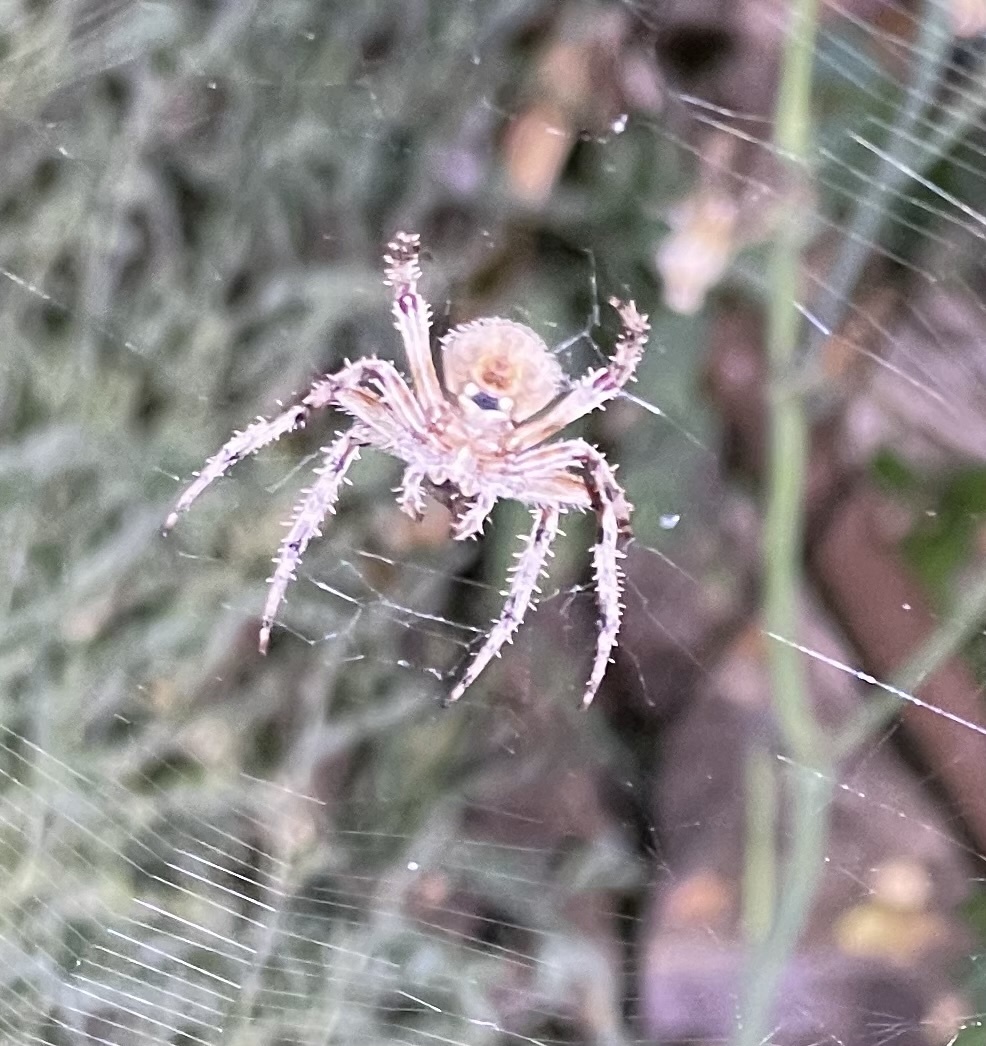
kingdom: Animalia
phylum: Arthropoda
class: Arachnida
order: Araneae
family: Araneidae
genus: Neoscona
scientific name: Neoscona crucifera
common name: Spotted orbweaver
